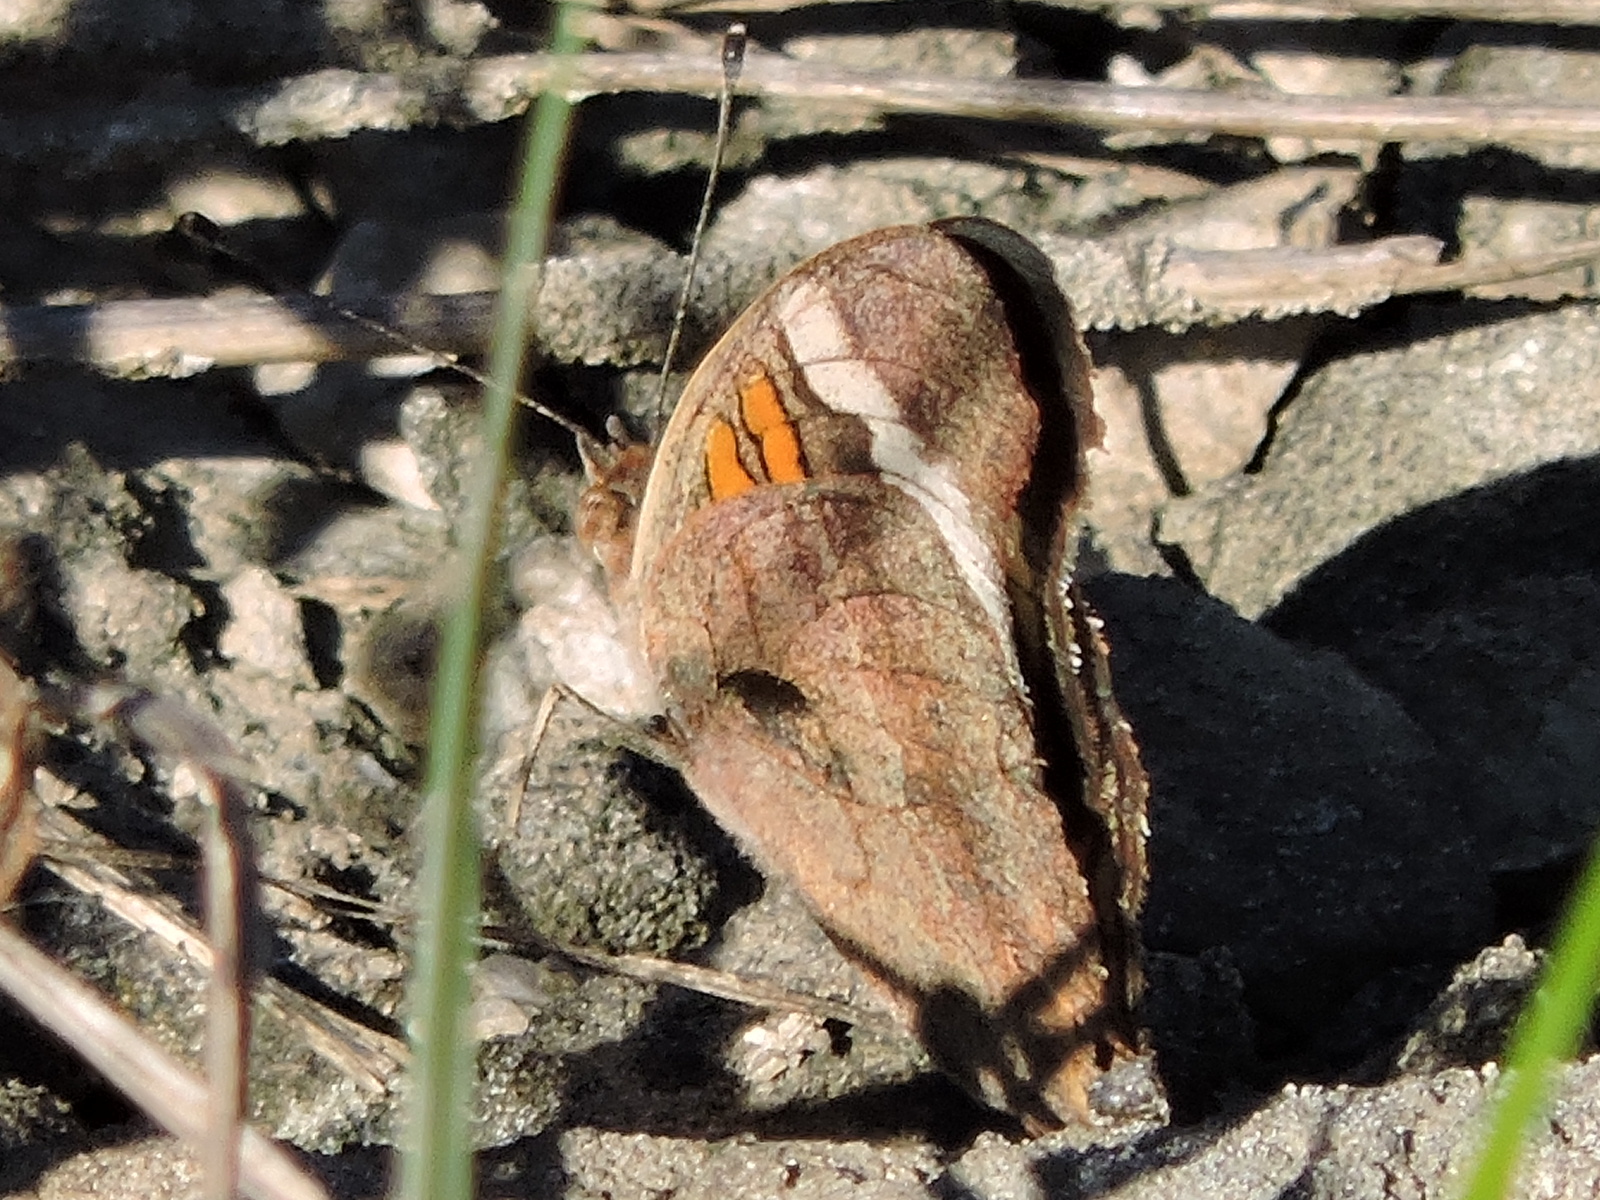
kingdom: Animalia
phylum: Arthropoda
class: Insecta
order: Lepidoptera
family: Nymphalidae
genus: Junonia
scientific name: Junonia coenia
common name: Common buckeye
